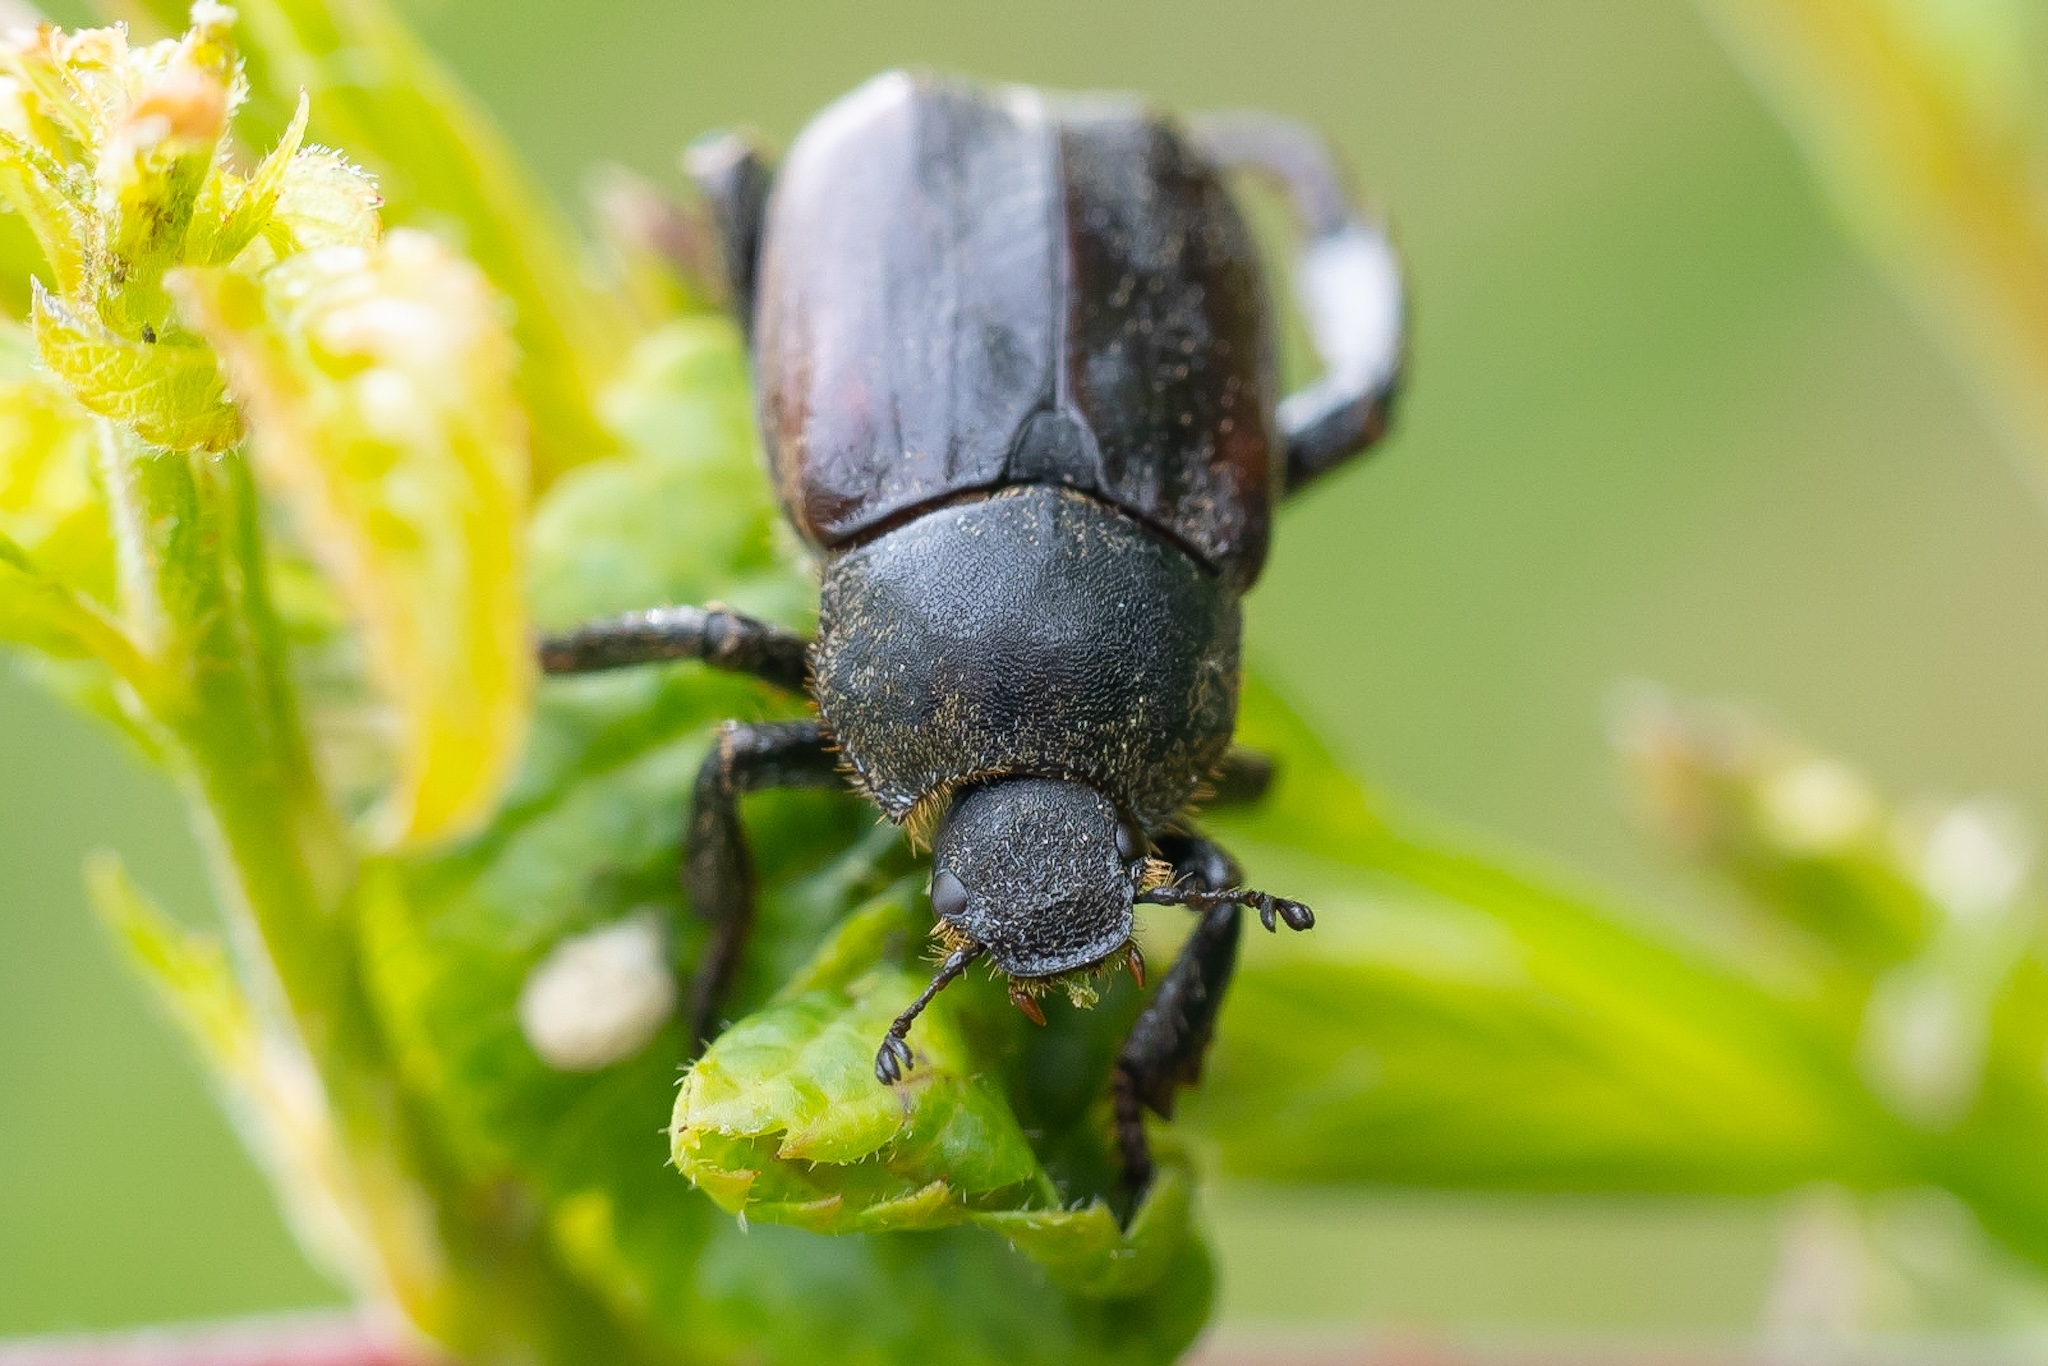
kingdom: Animalia
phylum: Arthropoda
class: Insecta
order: Coleoptera
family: Scarabaeidae
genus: Hoplia
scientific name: Hoplia philanthus
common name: Welsh chafer
